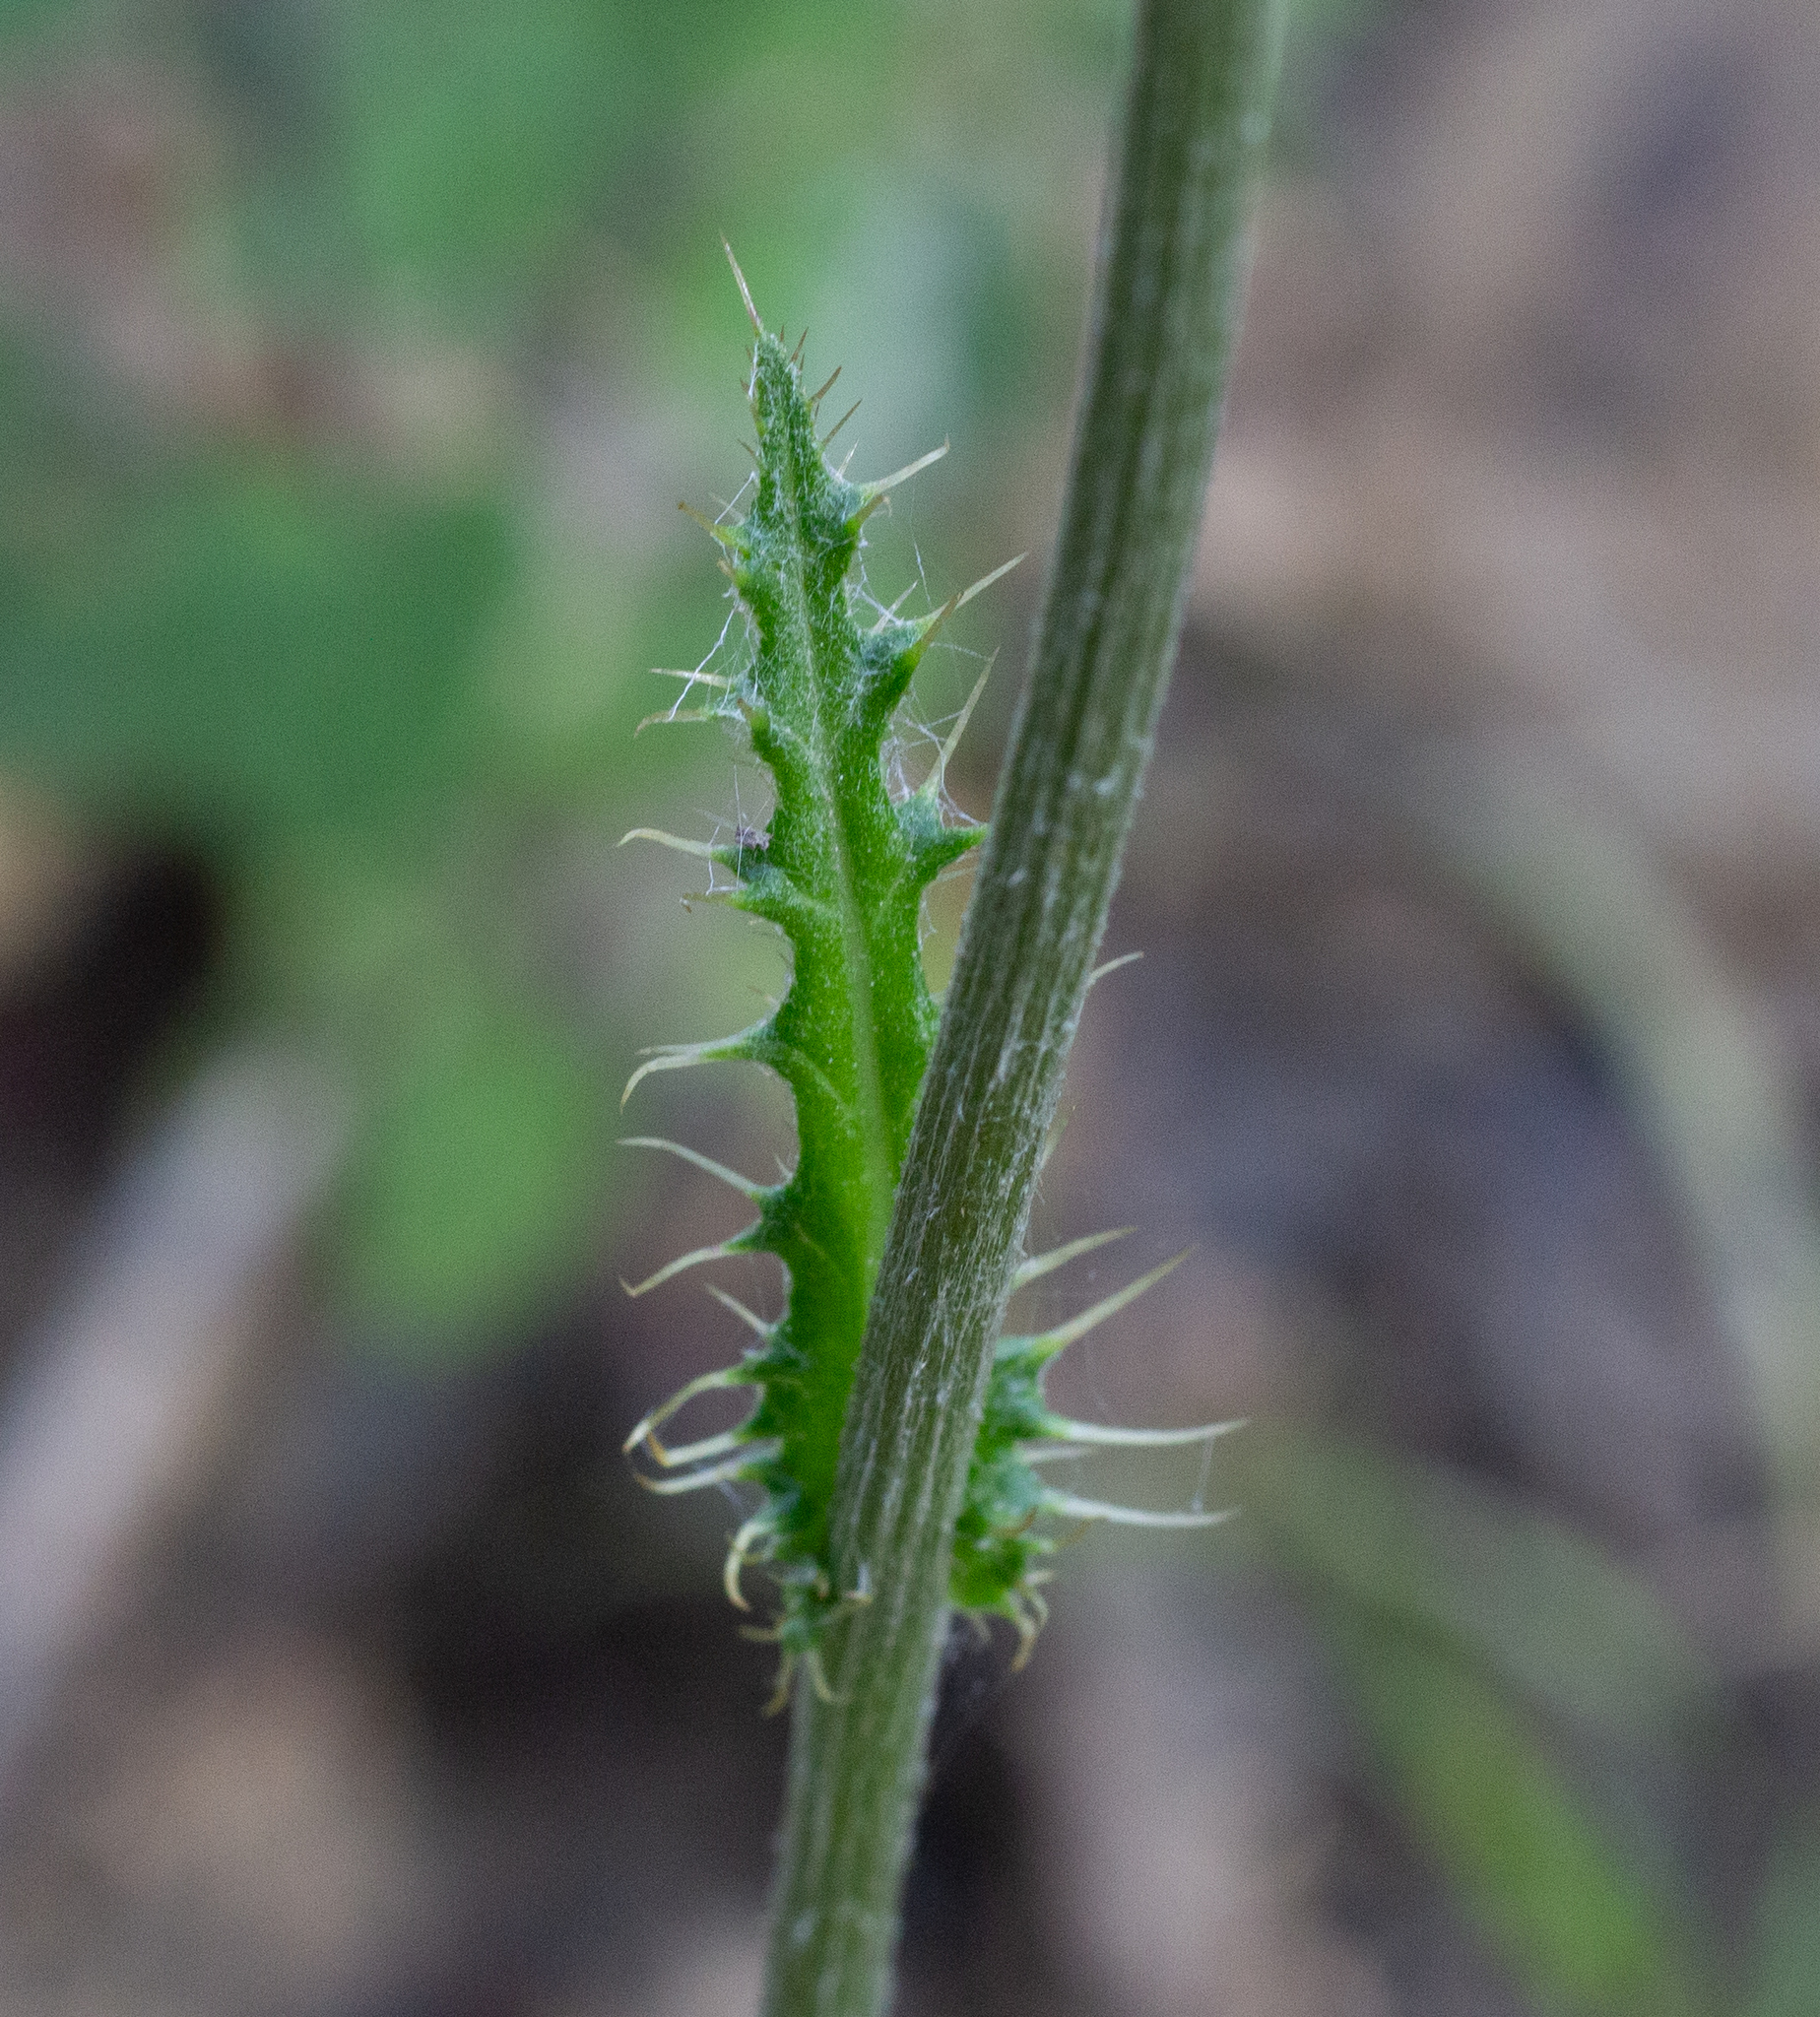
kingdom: Plantae
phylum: Tracheophyta
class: Magnoliopsida
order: Asterales
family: Asteraceae
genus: Cirsium
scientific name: Cirsium filipendulum
